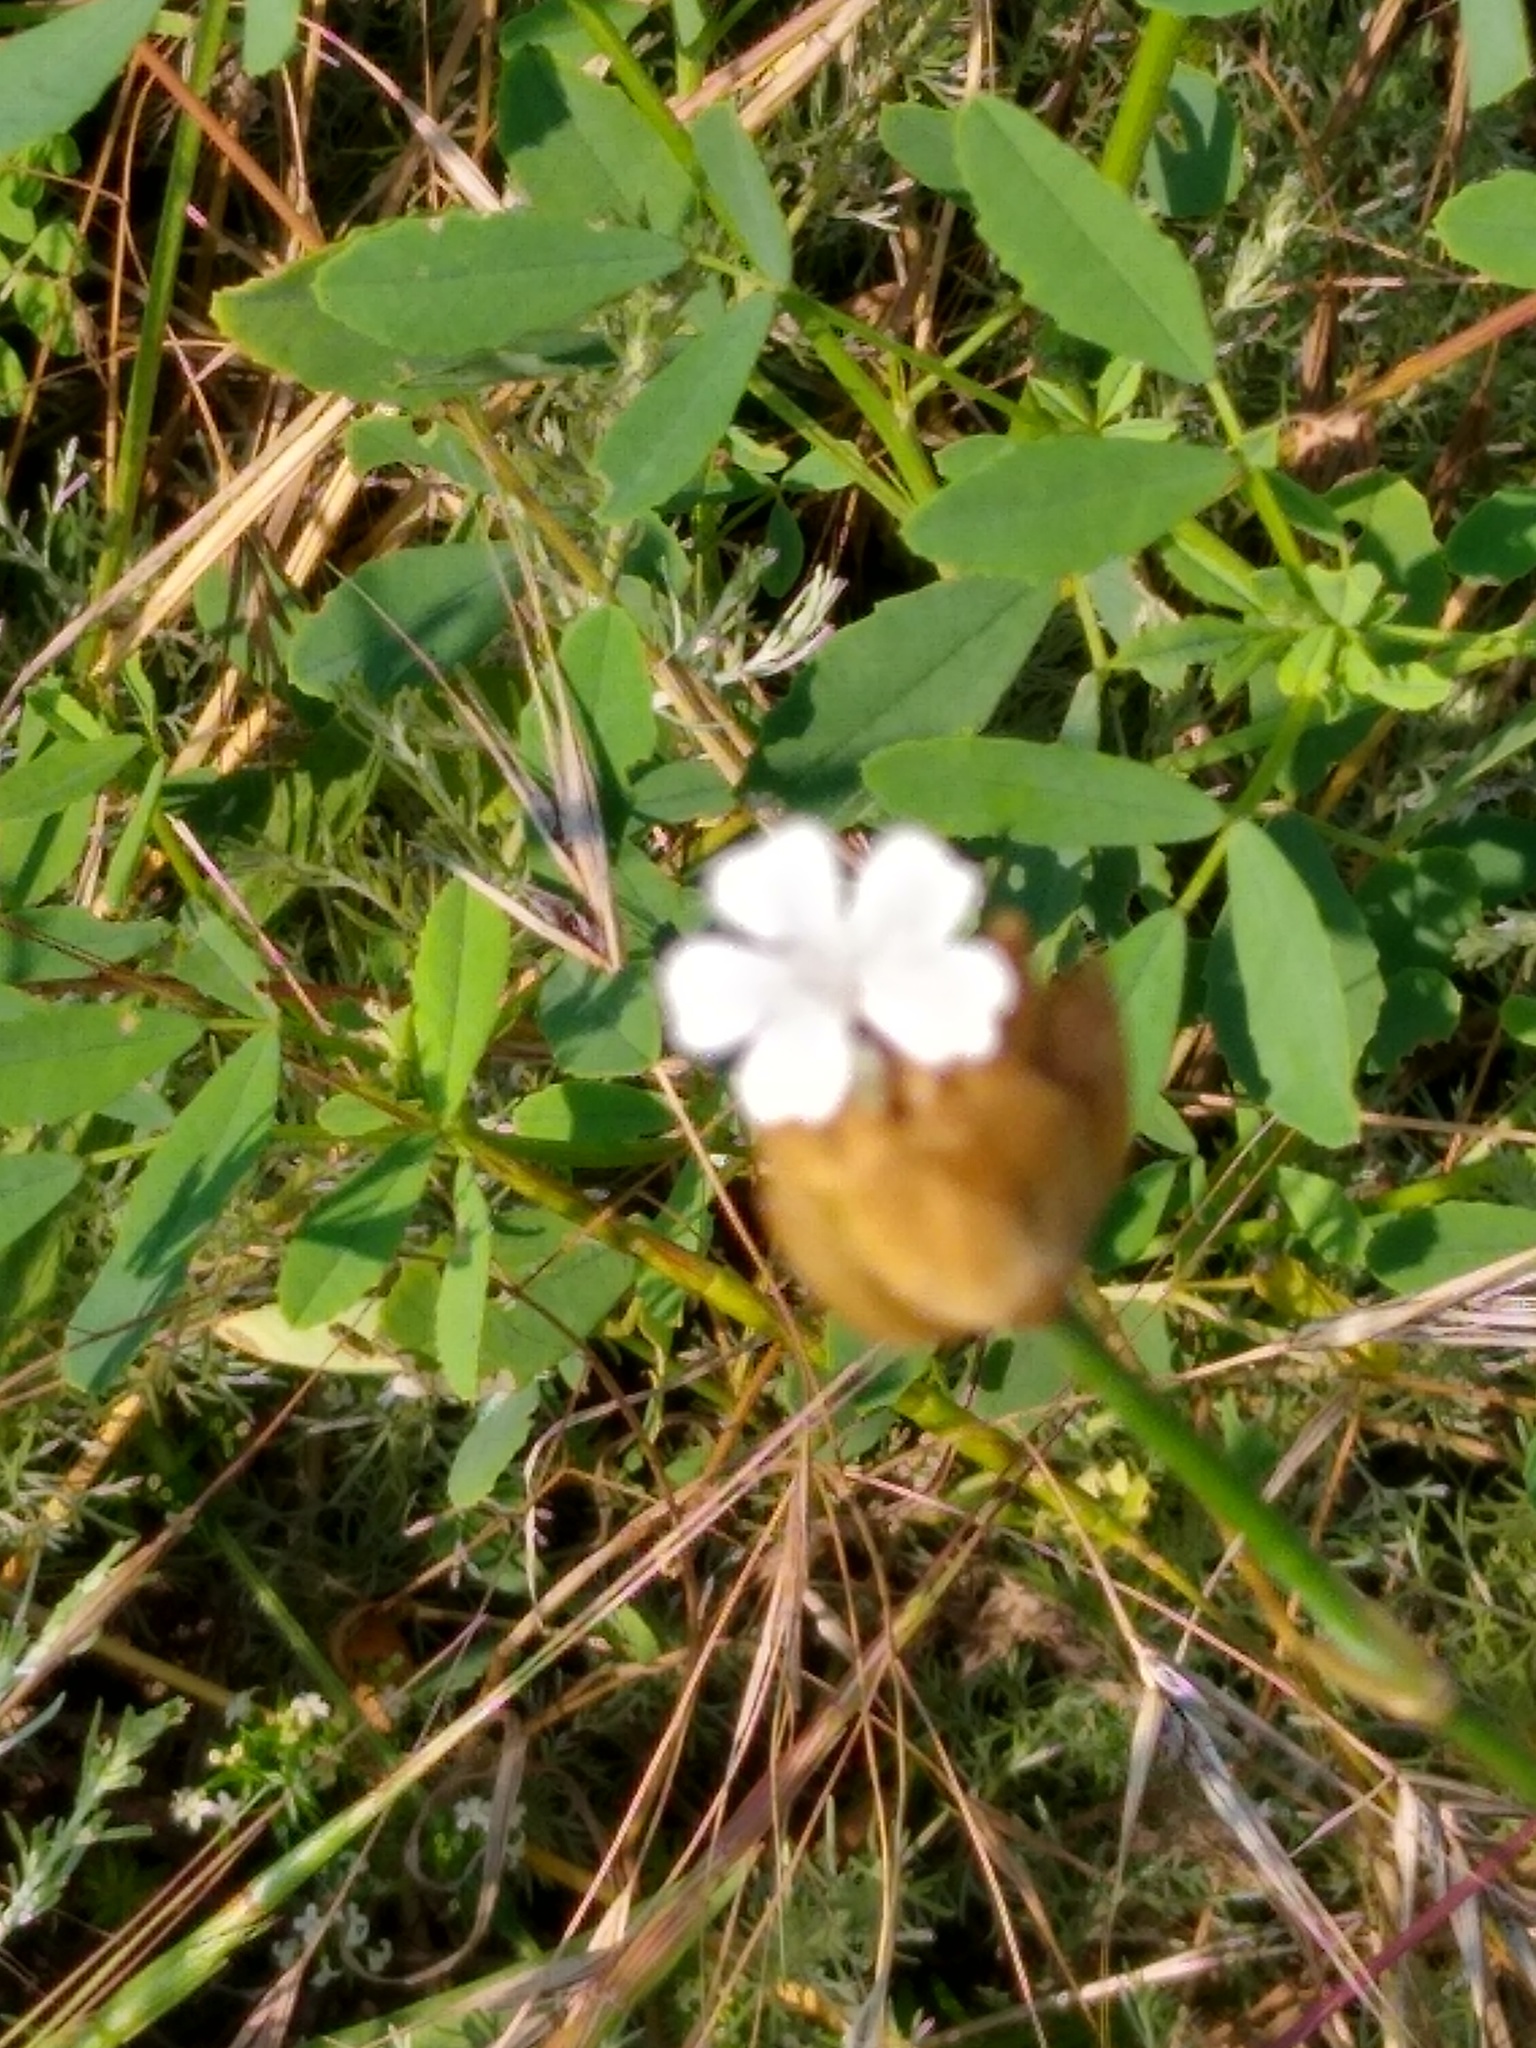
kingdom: Plantae
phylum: Tracheophyta
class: Magnoliopsida
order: Caryophyllales
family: Caryophyllaceae
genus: Petrorhagia
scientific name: Petrorhagia prolifera
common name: Proliferous pink
